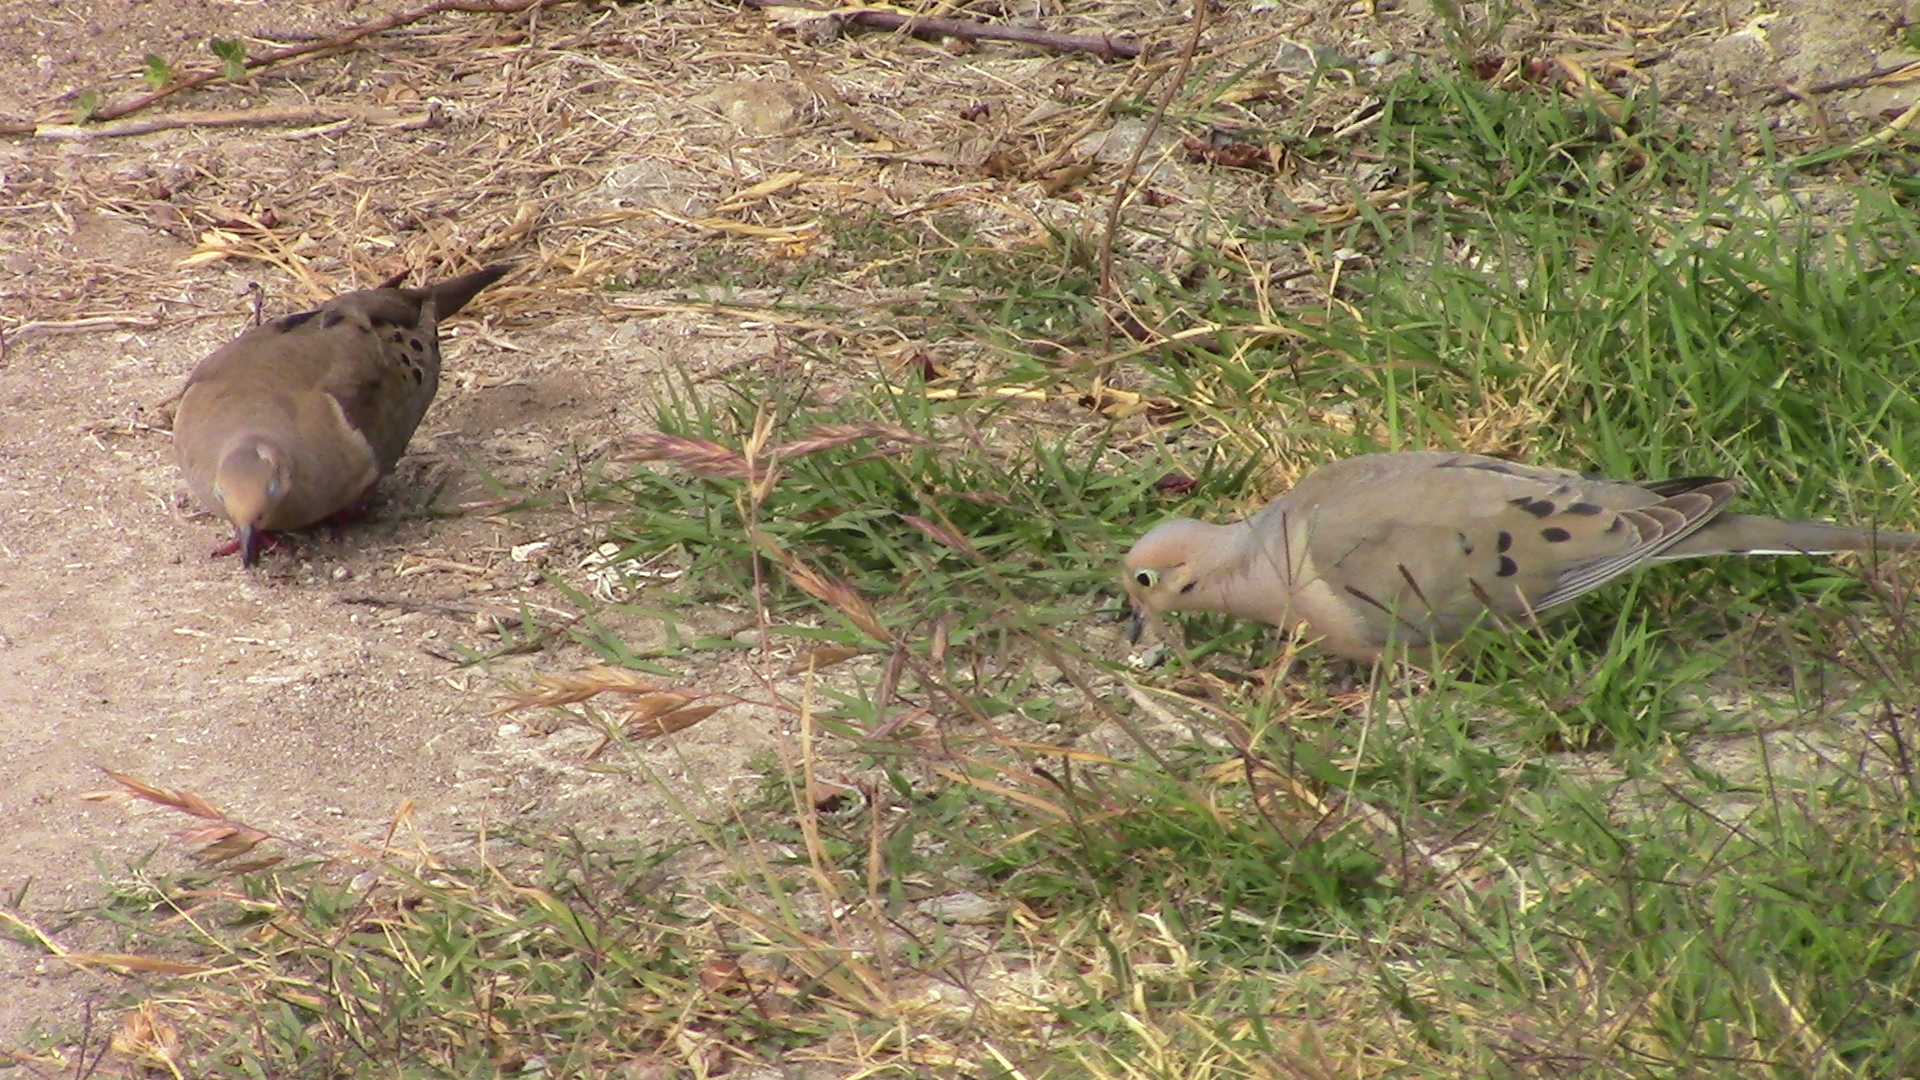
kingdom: Animalia
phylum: Chordata
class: Aves
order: Columbiformes
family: Columbidae
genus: Zenaida
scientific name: Zenaida macroura
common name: Mourning dove
